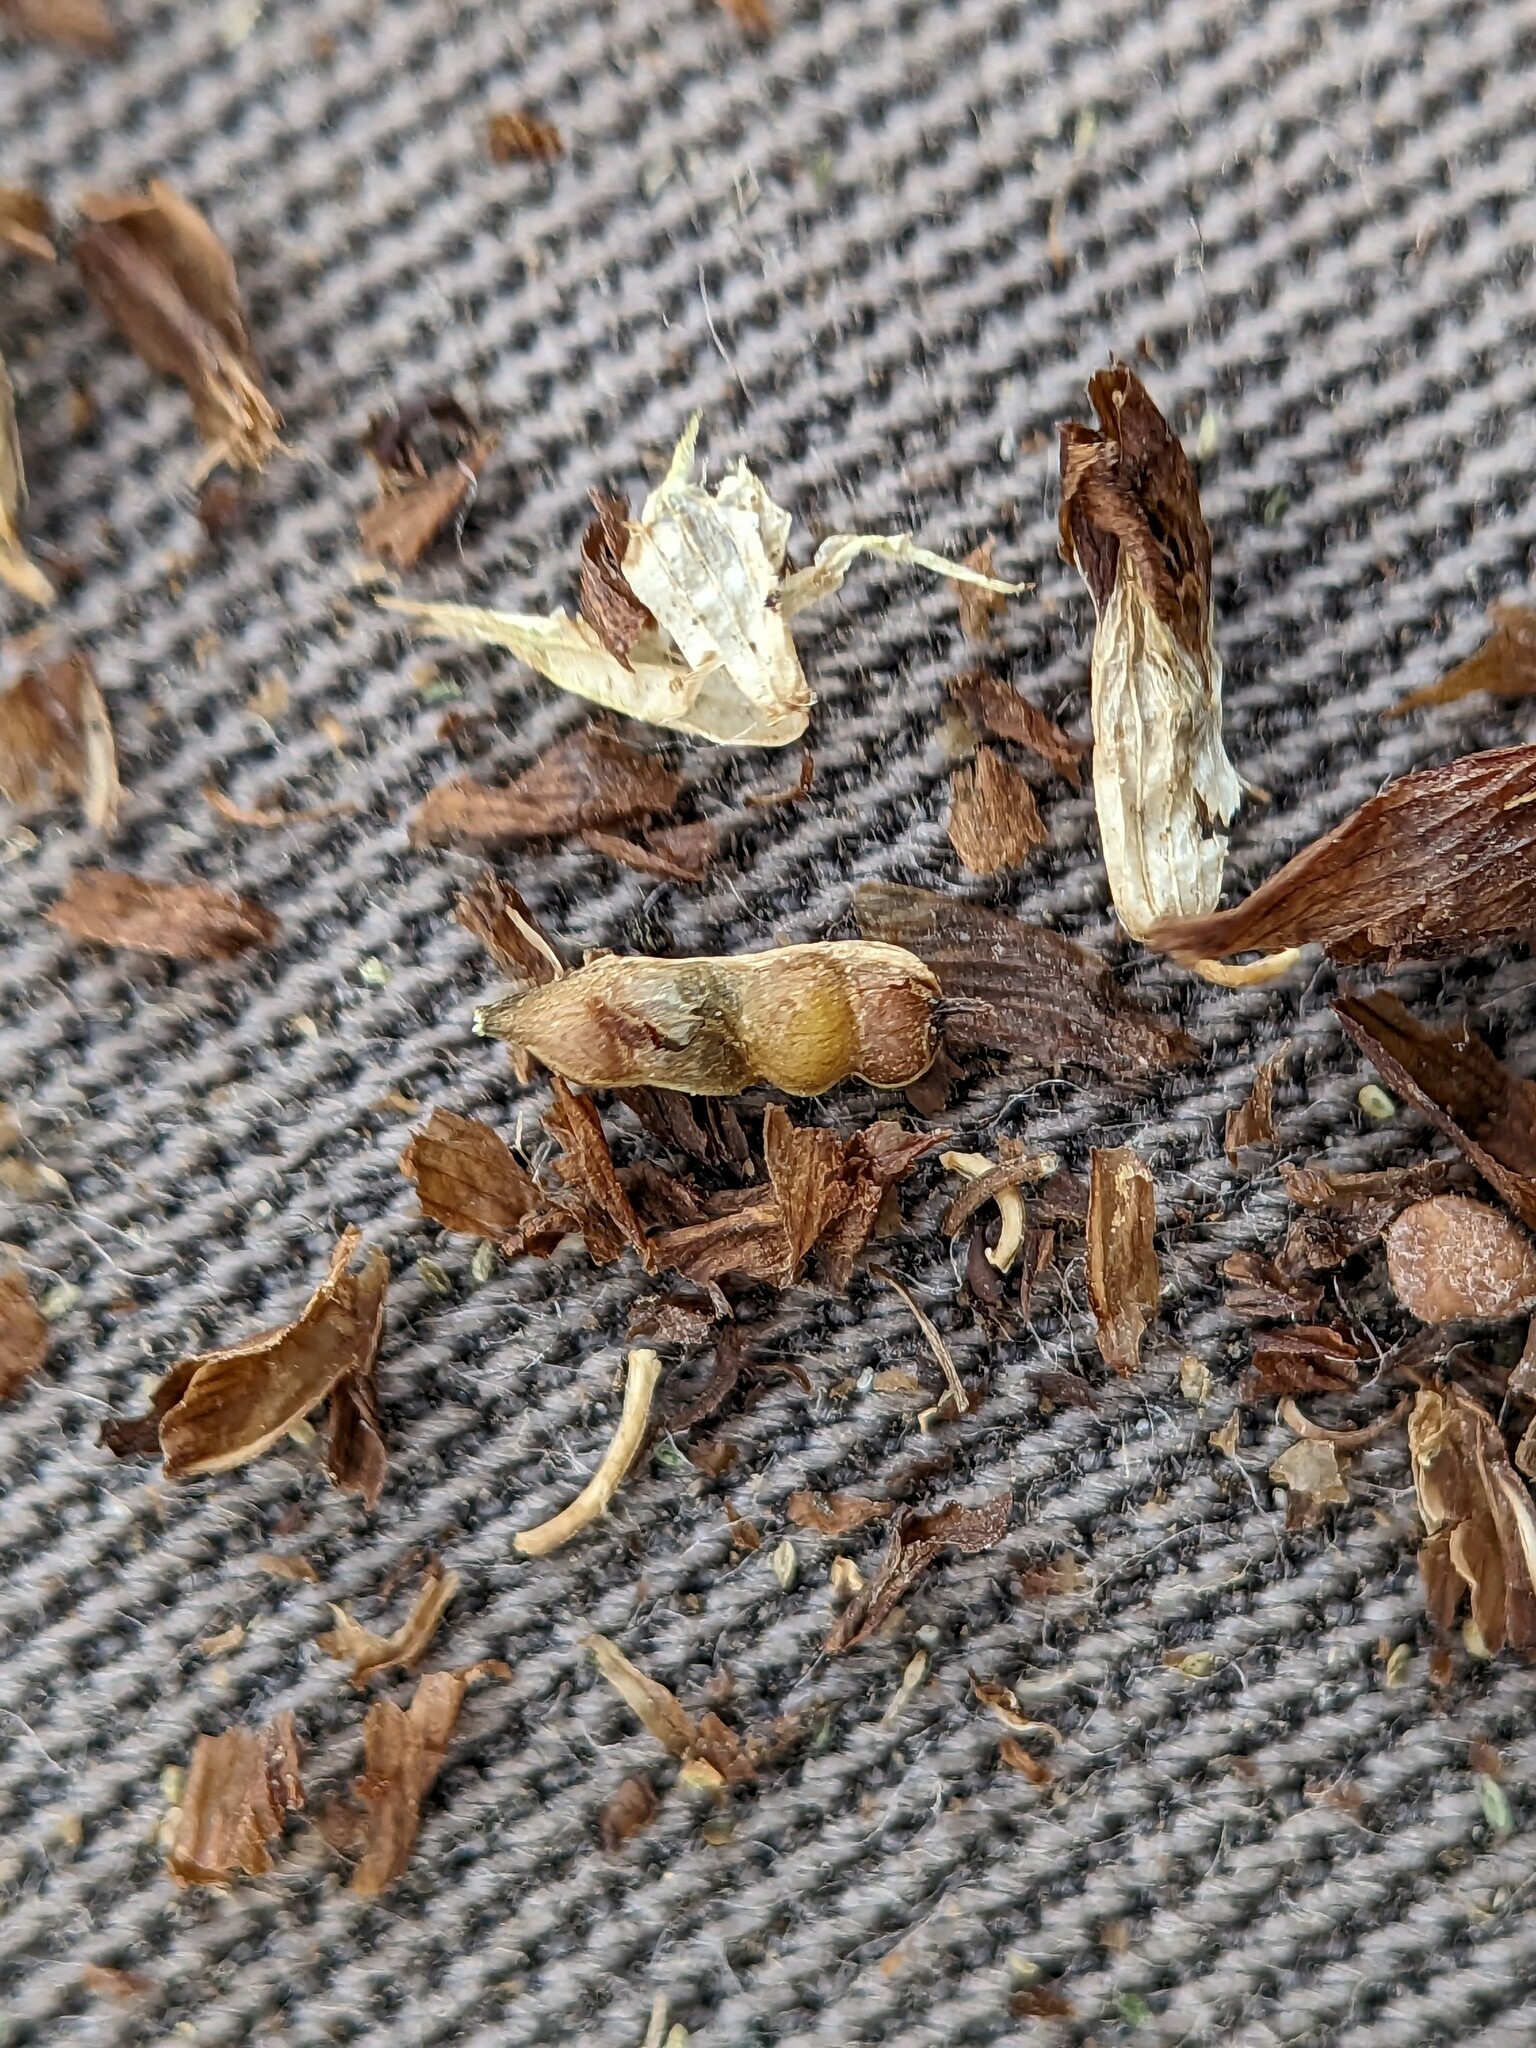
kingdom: Plantae
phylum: Tracheophyta
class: Magnoliopsida
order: Fabales
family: Fabaceae
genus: Trifolium
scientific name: Trifolium repens
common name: White clover
